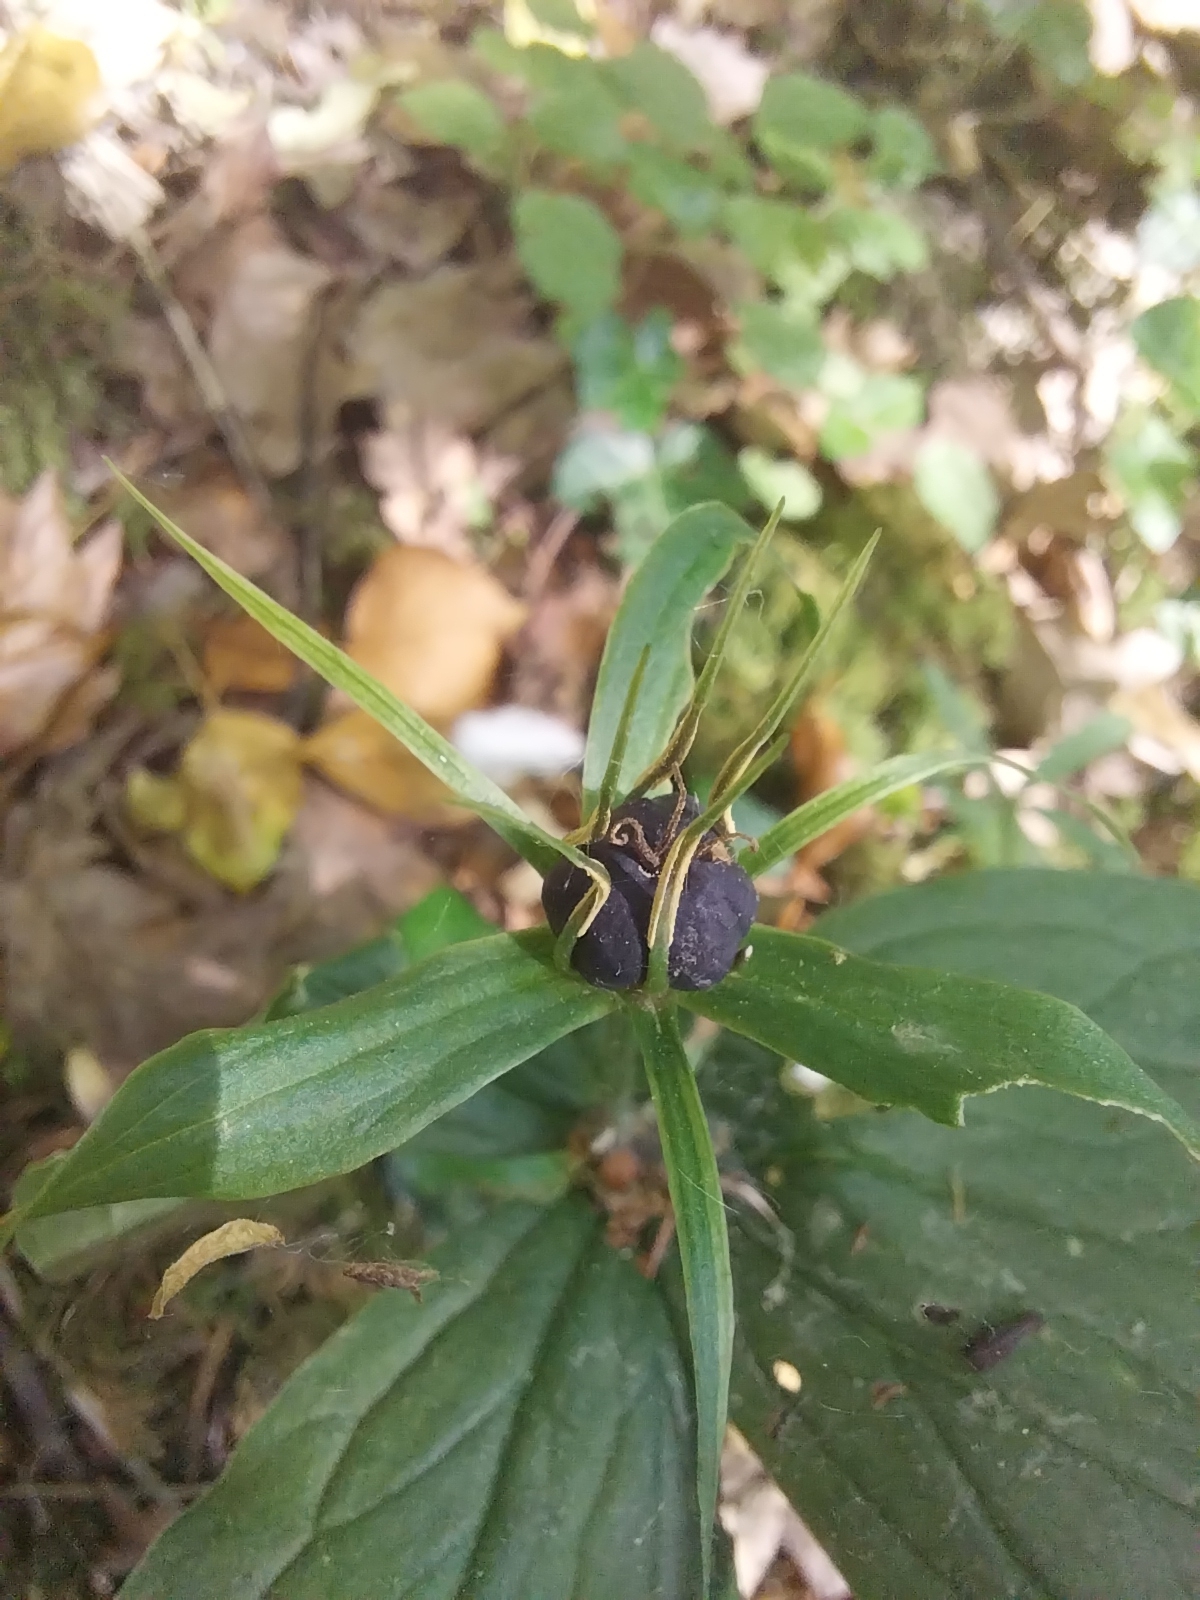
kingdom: Plantae
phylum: Tracheophyta
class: Liliopsida
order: Liliales
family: Melanthiaceae
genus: Paris
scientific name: Paris quadrifolia
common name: Herb-paris
